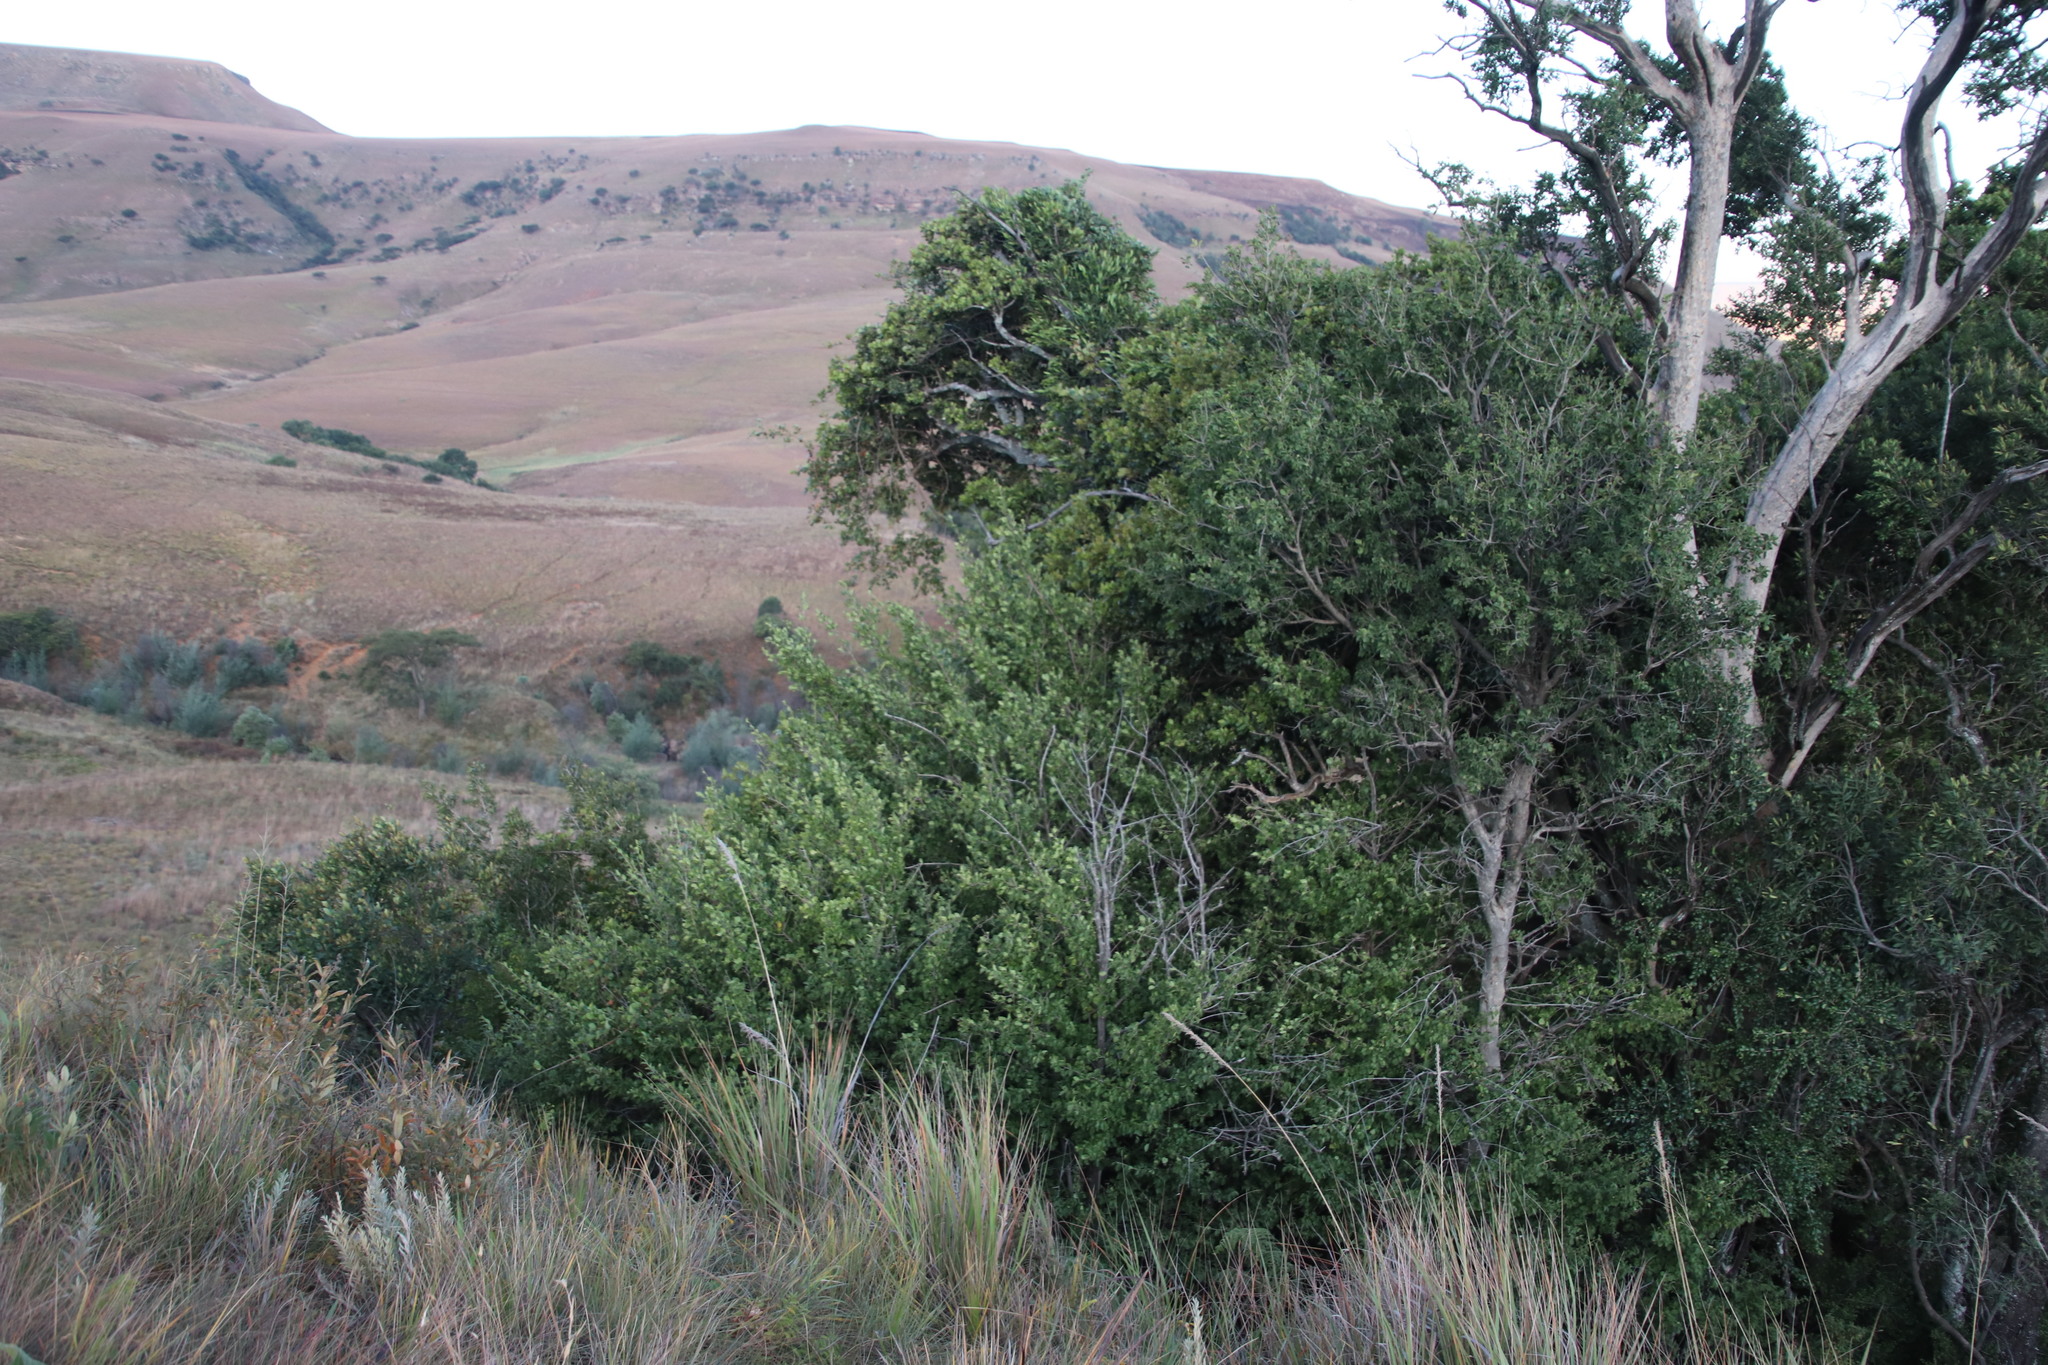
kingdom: Plantae
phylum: Tracheophyta
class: Magnoliopsida
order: Vitales
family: Vitaceae
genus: Rhoicissus
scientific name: Rhoicissus tridentata
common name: Common forest grape
